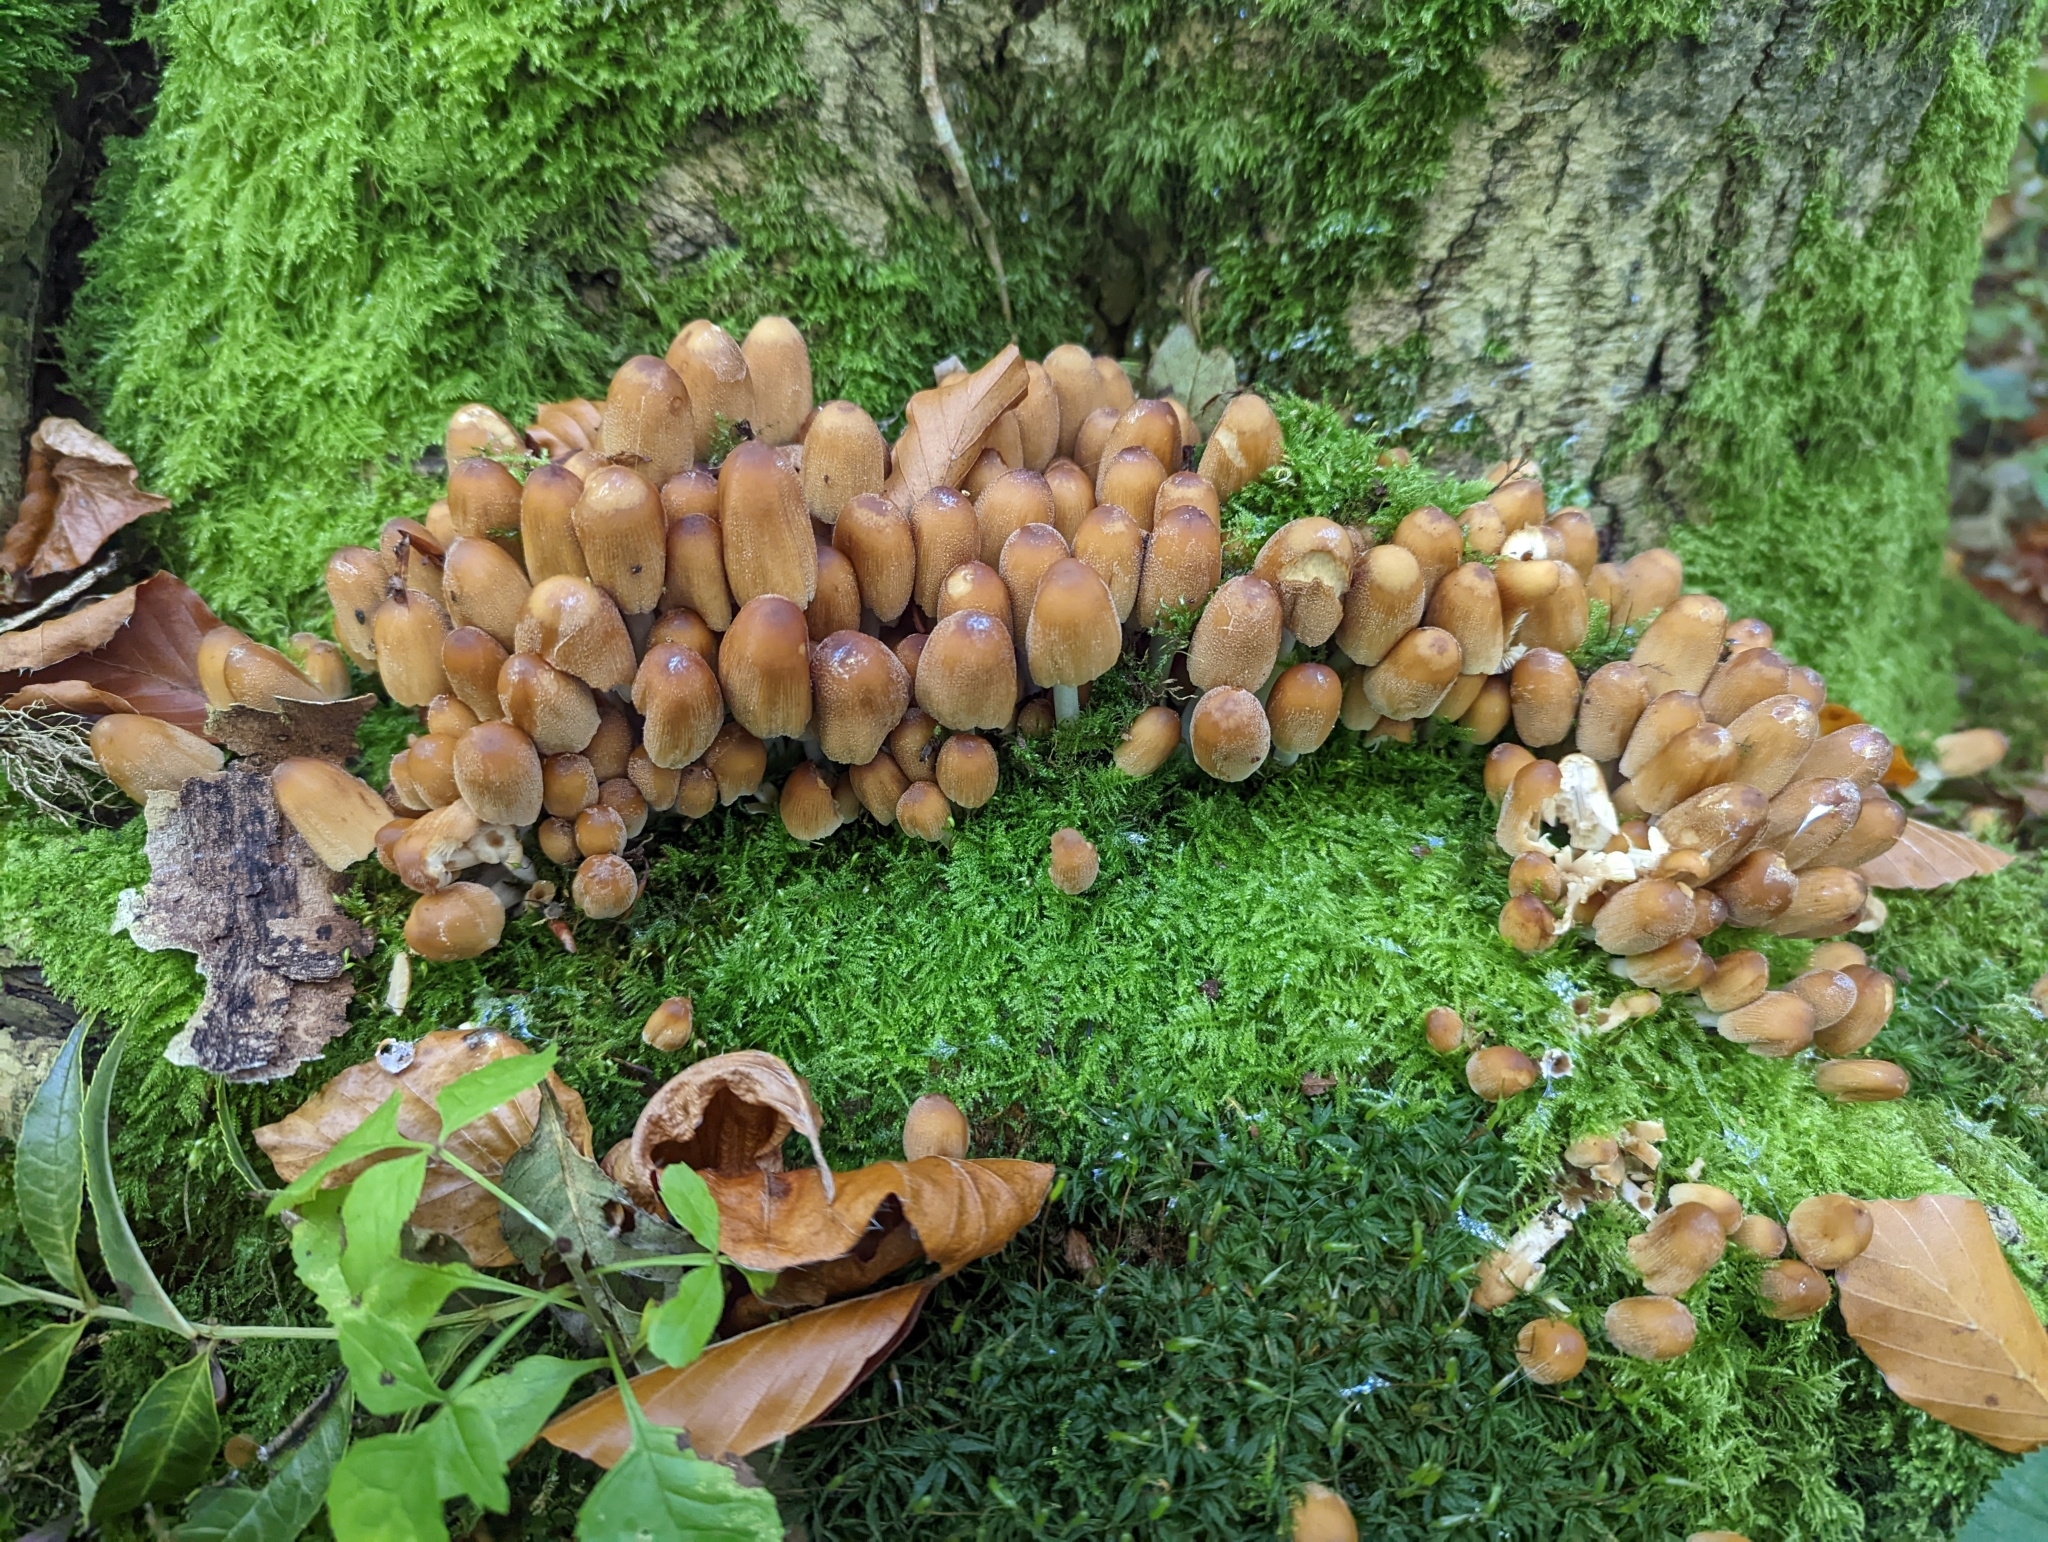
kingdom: Fungi
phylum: Basidiomycota
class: Agaricomycetes
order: Agaricales
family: Psathyrellaceae
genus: Coprinellus
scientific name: Coprinellus micaceus
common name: Glistening ink-cap
